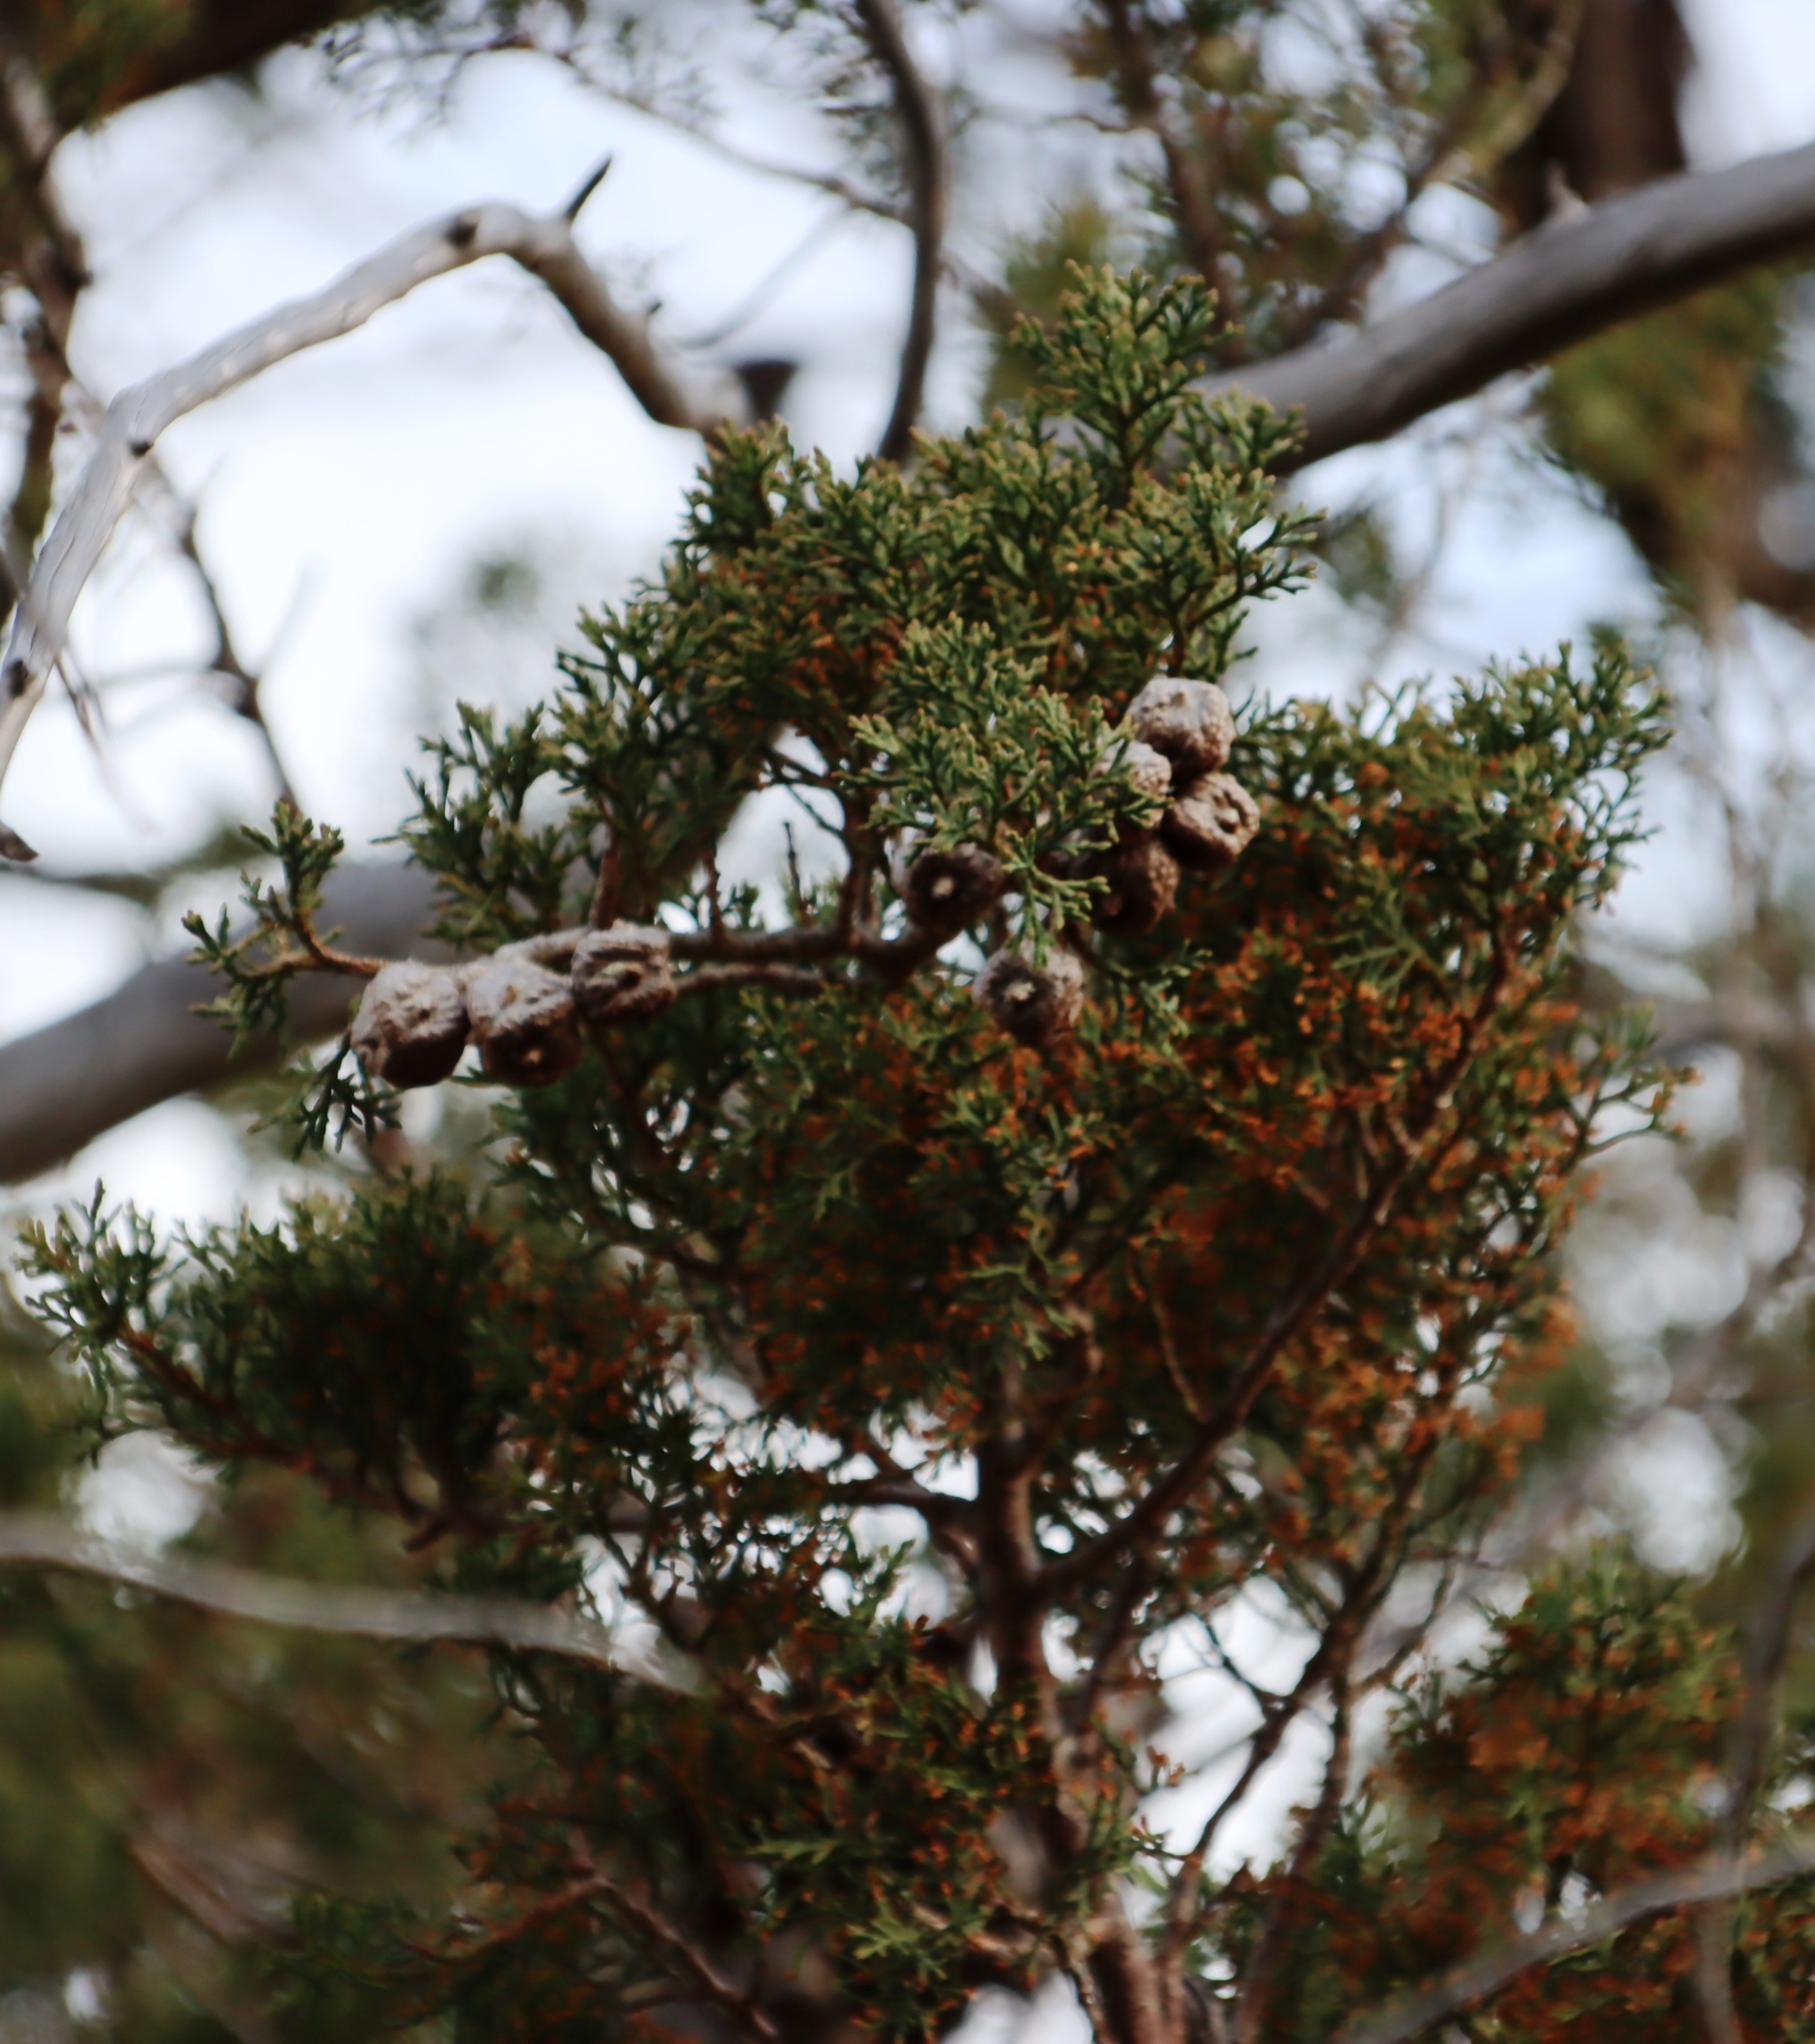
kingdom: Plantae
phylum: Tracheophyta
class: Pinopsida
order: Pinales
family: Cupressaceae
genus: Widdringtonia
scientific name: Widdringtonia schwarzii
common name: Baviaans cedar
